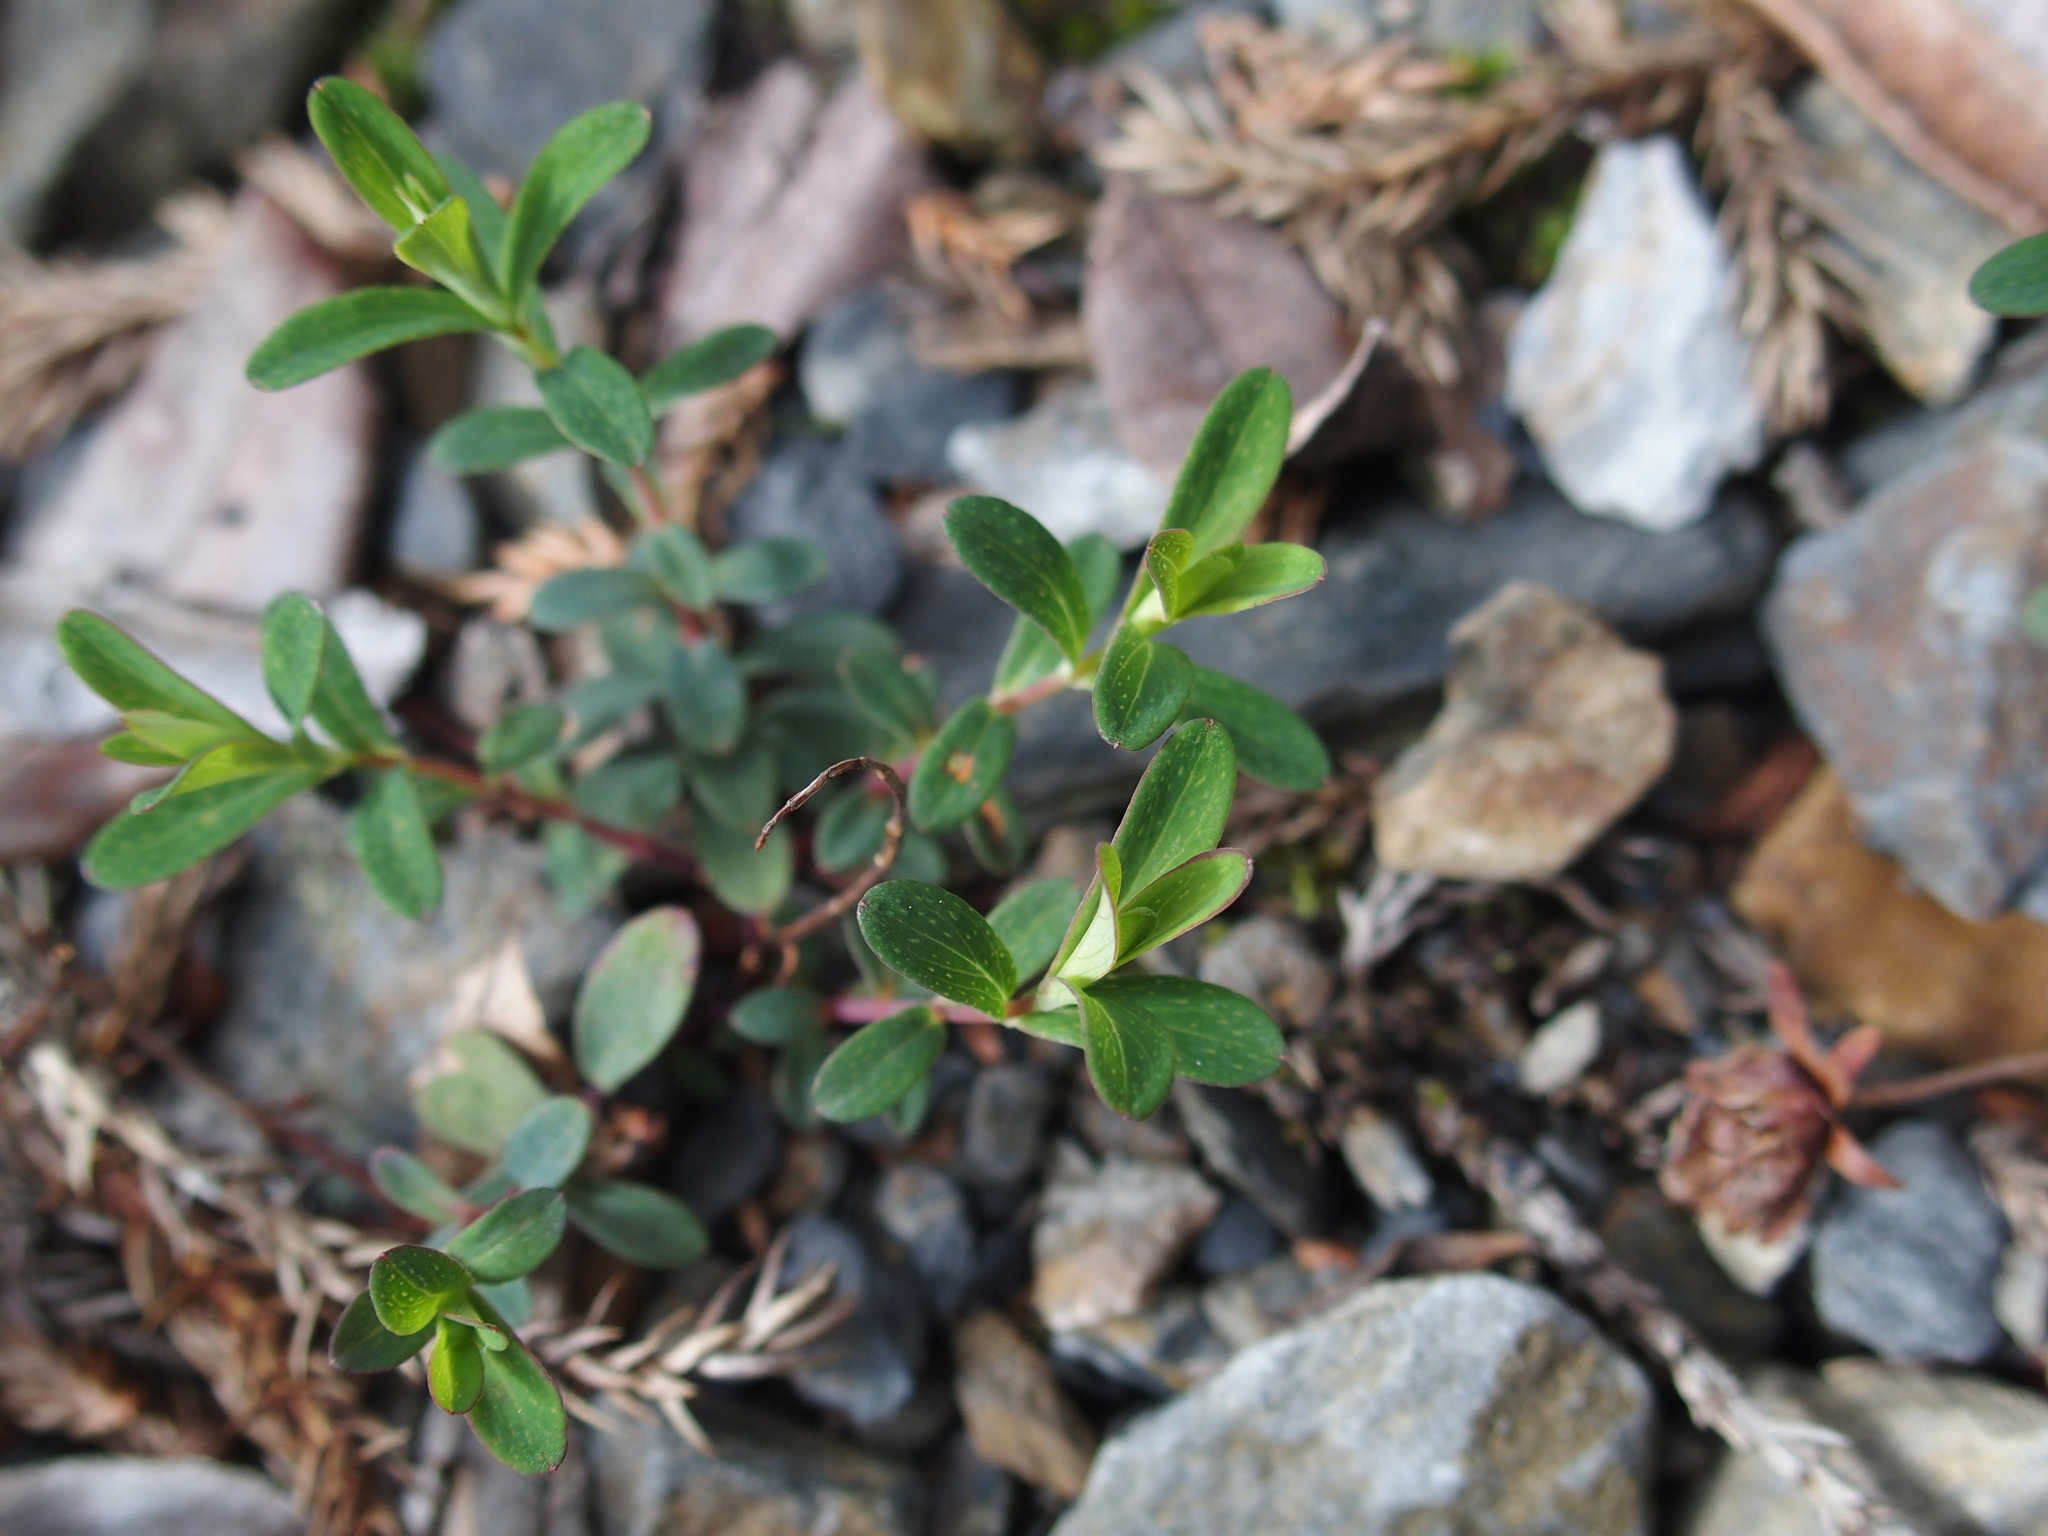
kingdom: Plantae
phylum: Tracheophyta
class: Magnoliopsida
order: Malpighiales
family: Hypericaceae
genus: Hypericum
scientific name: Hypericum nagasawae
